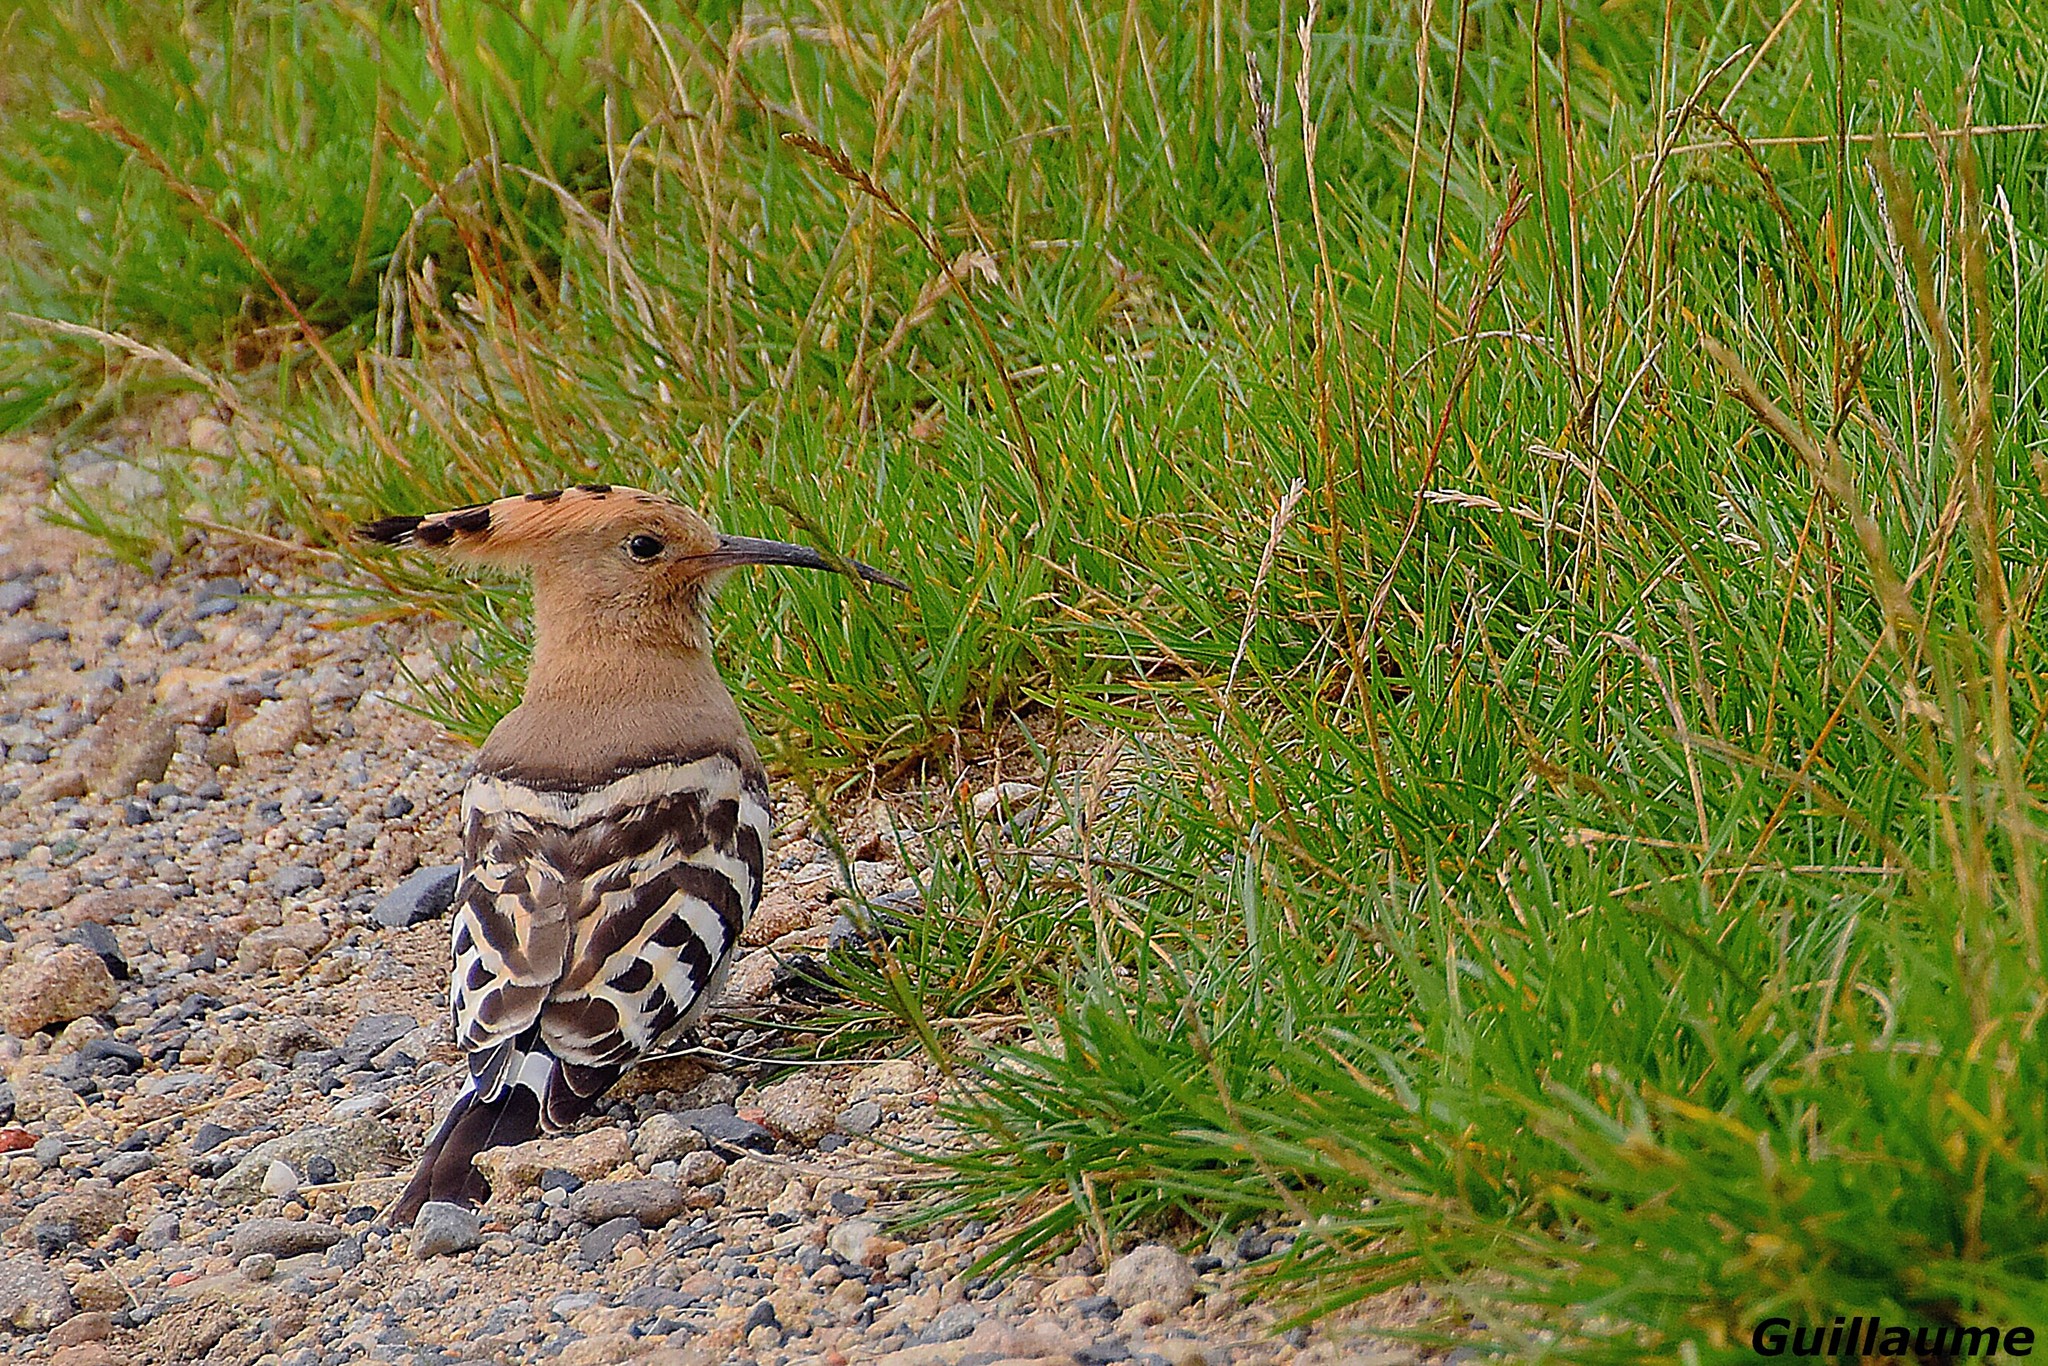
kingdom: Animalia
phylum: Chordata
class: Aves
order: Bucerotiformes
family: Upupidae
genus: Upupa
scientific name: Upupa epops
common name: Eurasian hoopoe
